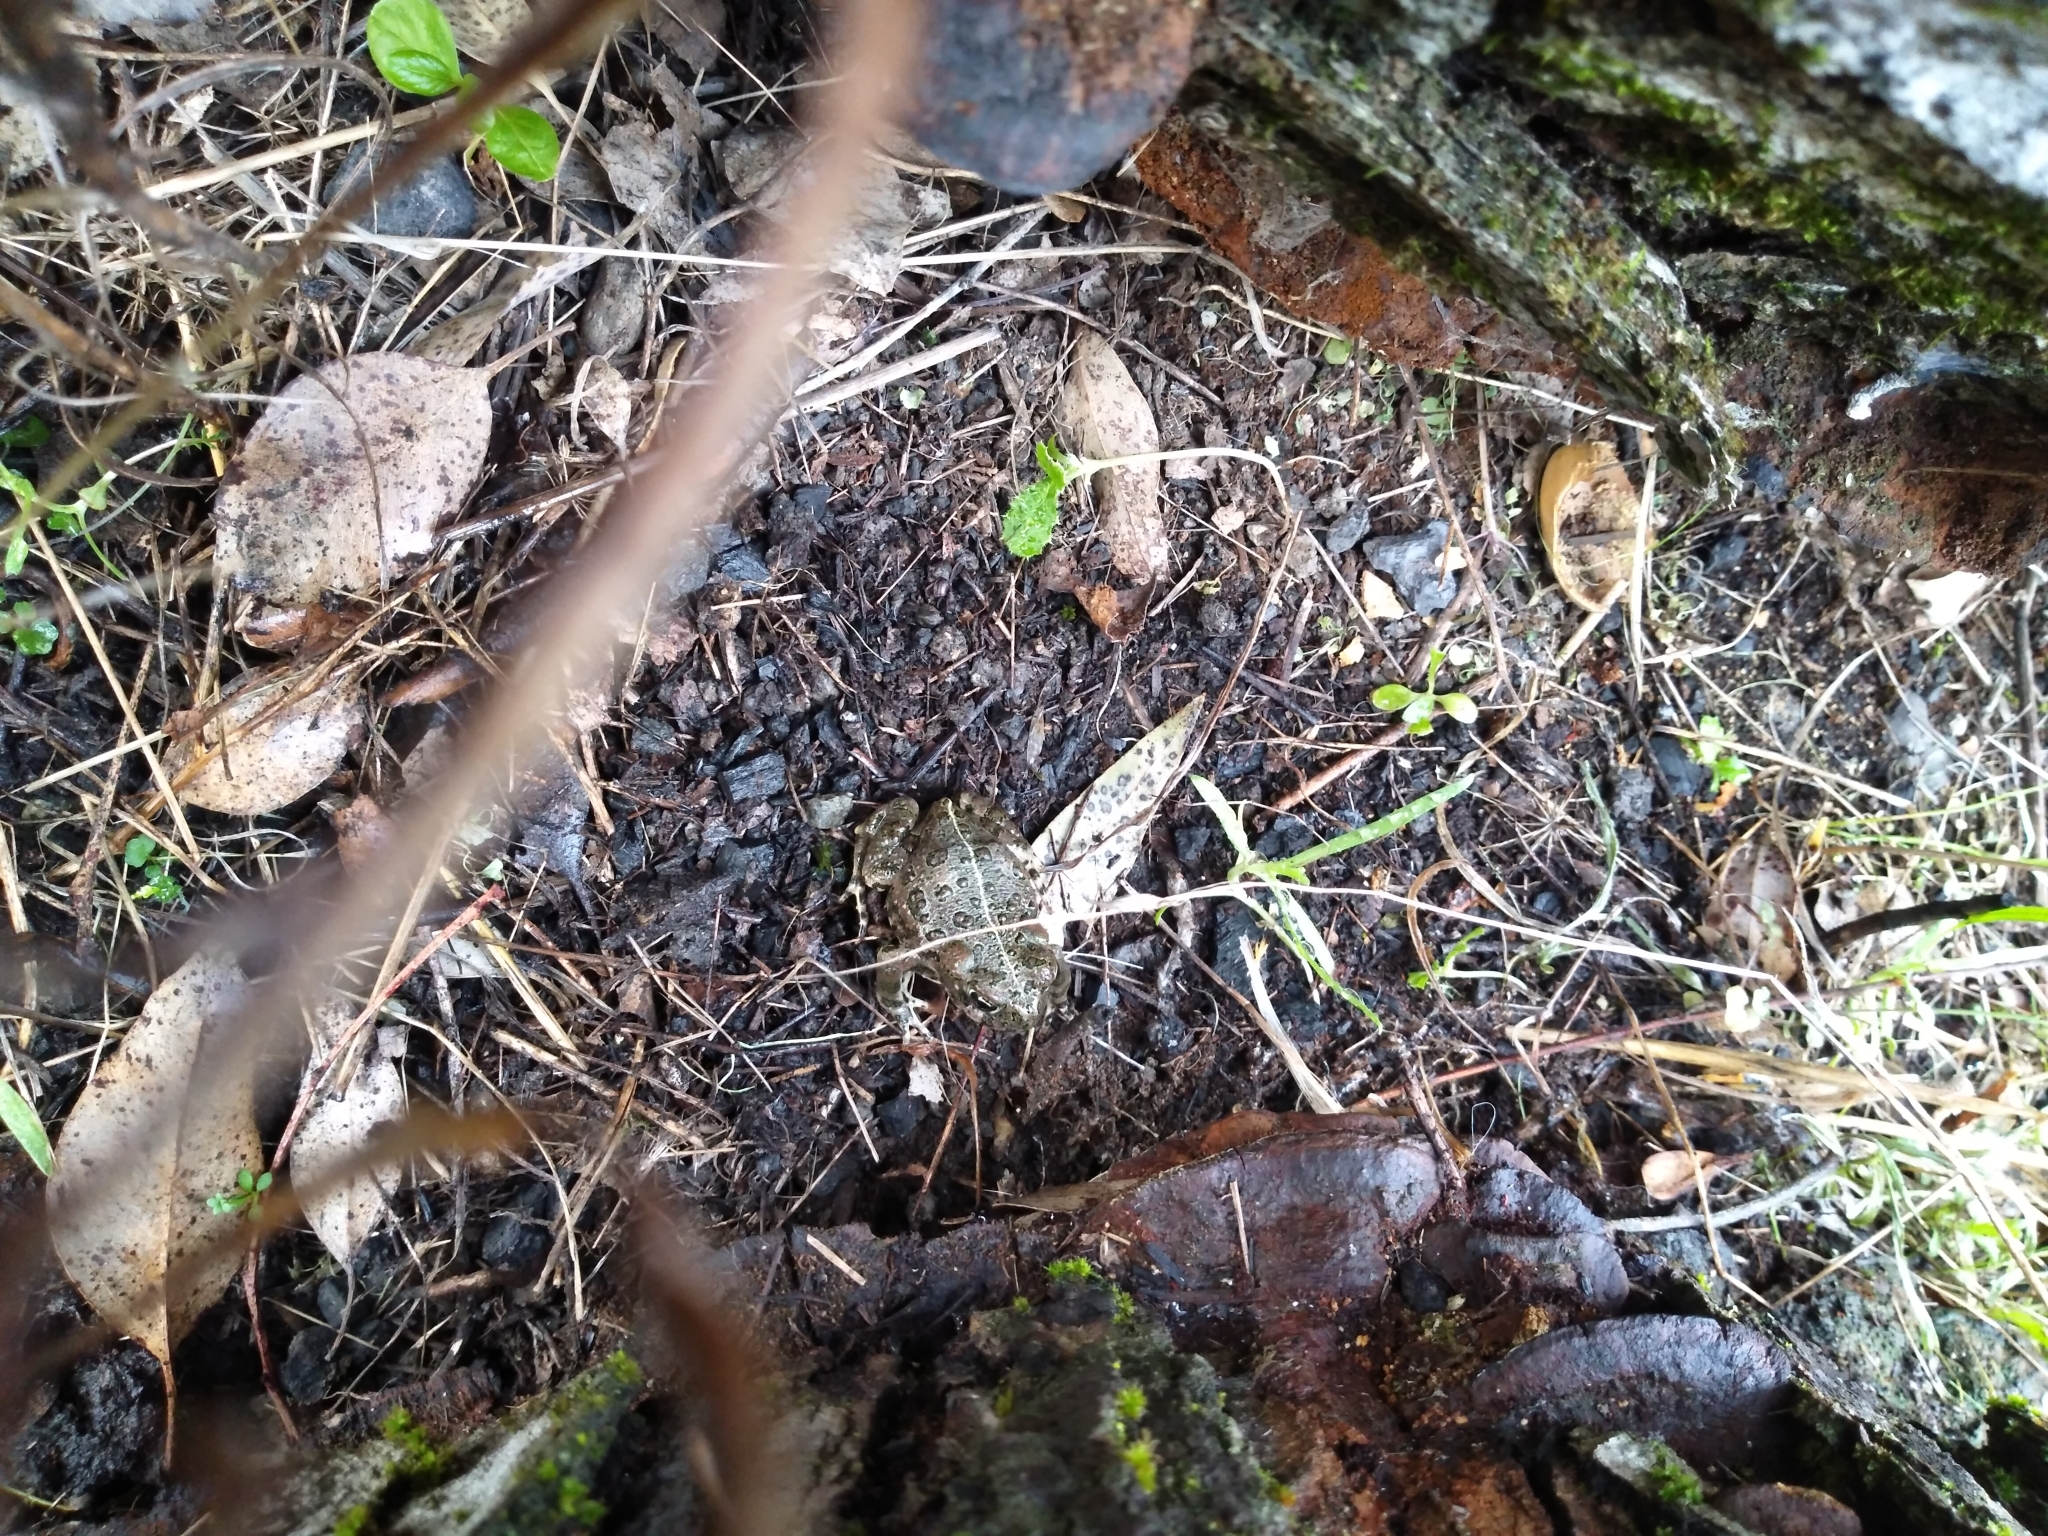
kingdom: Animalia
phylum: Chordata
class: Amphibia
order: Anura
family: Bufonidae
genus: Anaxyrus
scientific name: Anaxyrus boreas
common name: Western toad
